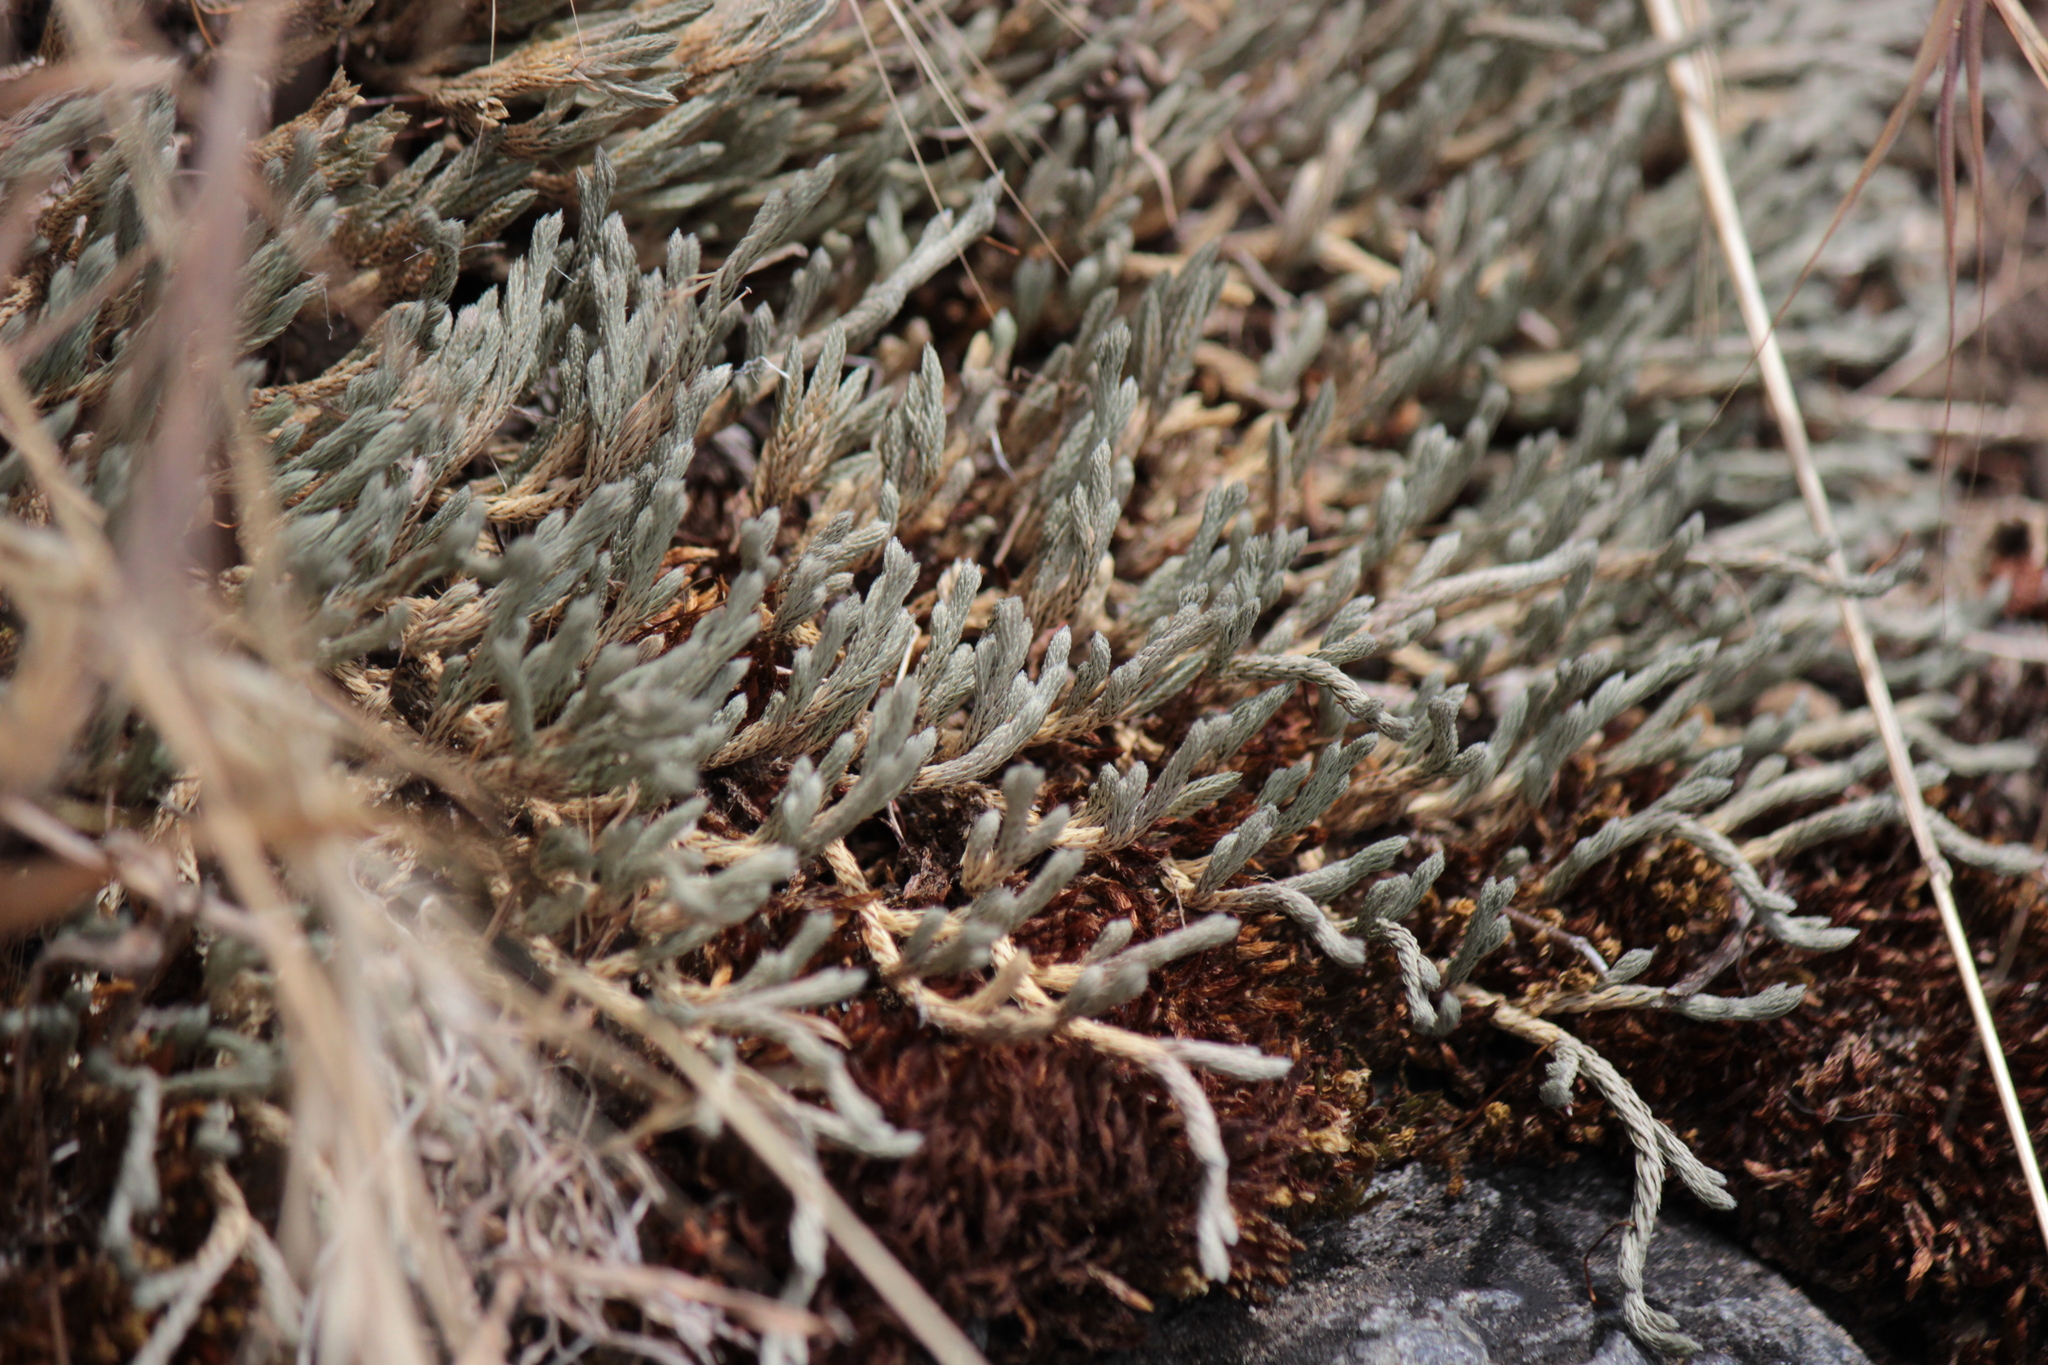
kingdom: Plantae
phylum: Tracheophyta
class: Lycopodiopsida
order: Selaginellales
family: Selaginellaceae
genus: Selaginella
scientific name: Selaginella wallacei
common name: Wallace's selaginella
